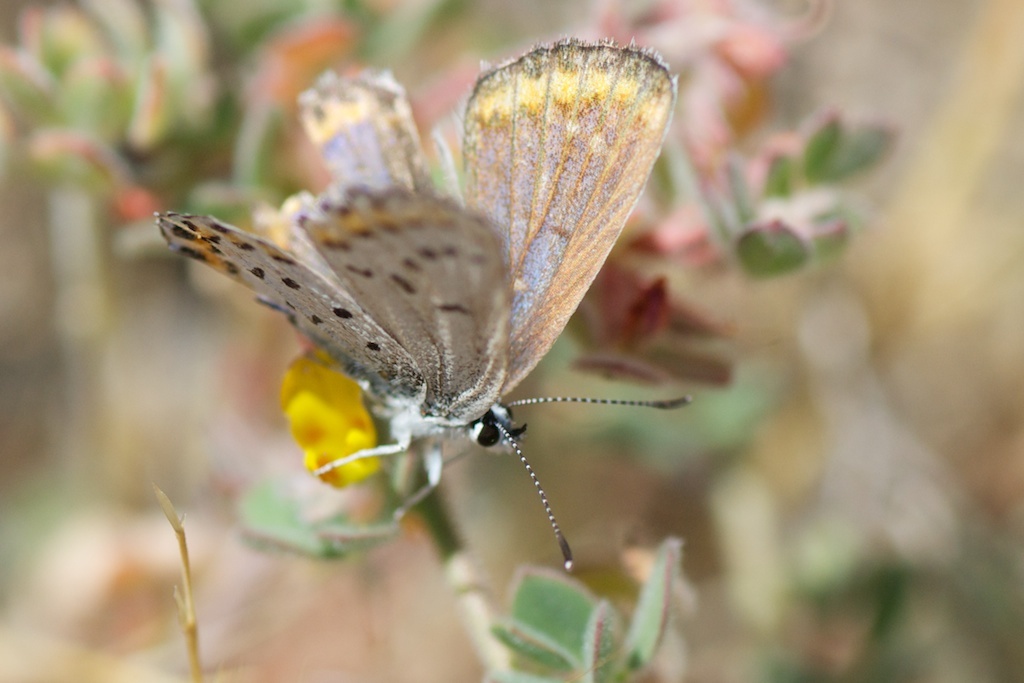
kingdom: Animalia
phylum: Arthropoda
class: Insecta
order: Lepidoptera
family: Lycaenidae
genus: Lycaeides
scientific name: Lycaeides melissa
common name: Melissa blue
